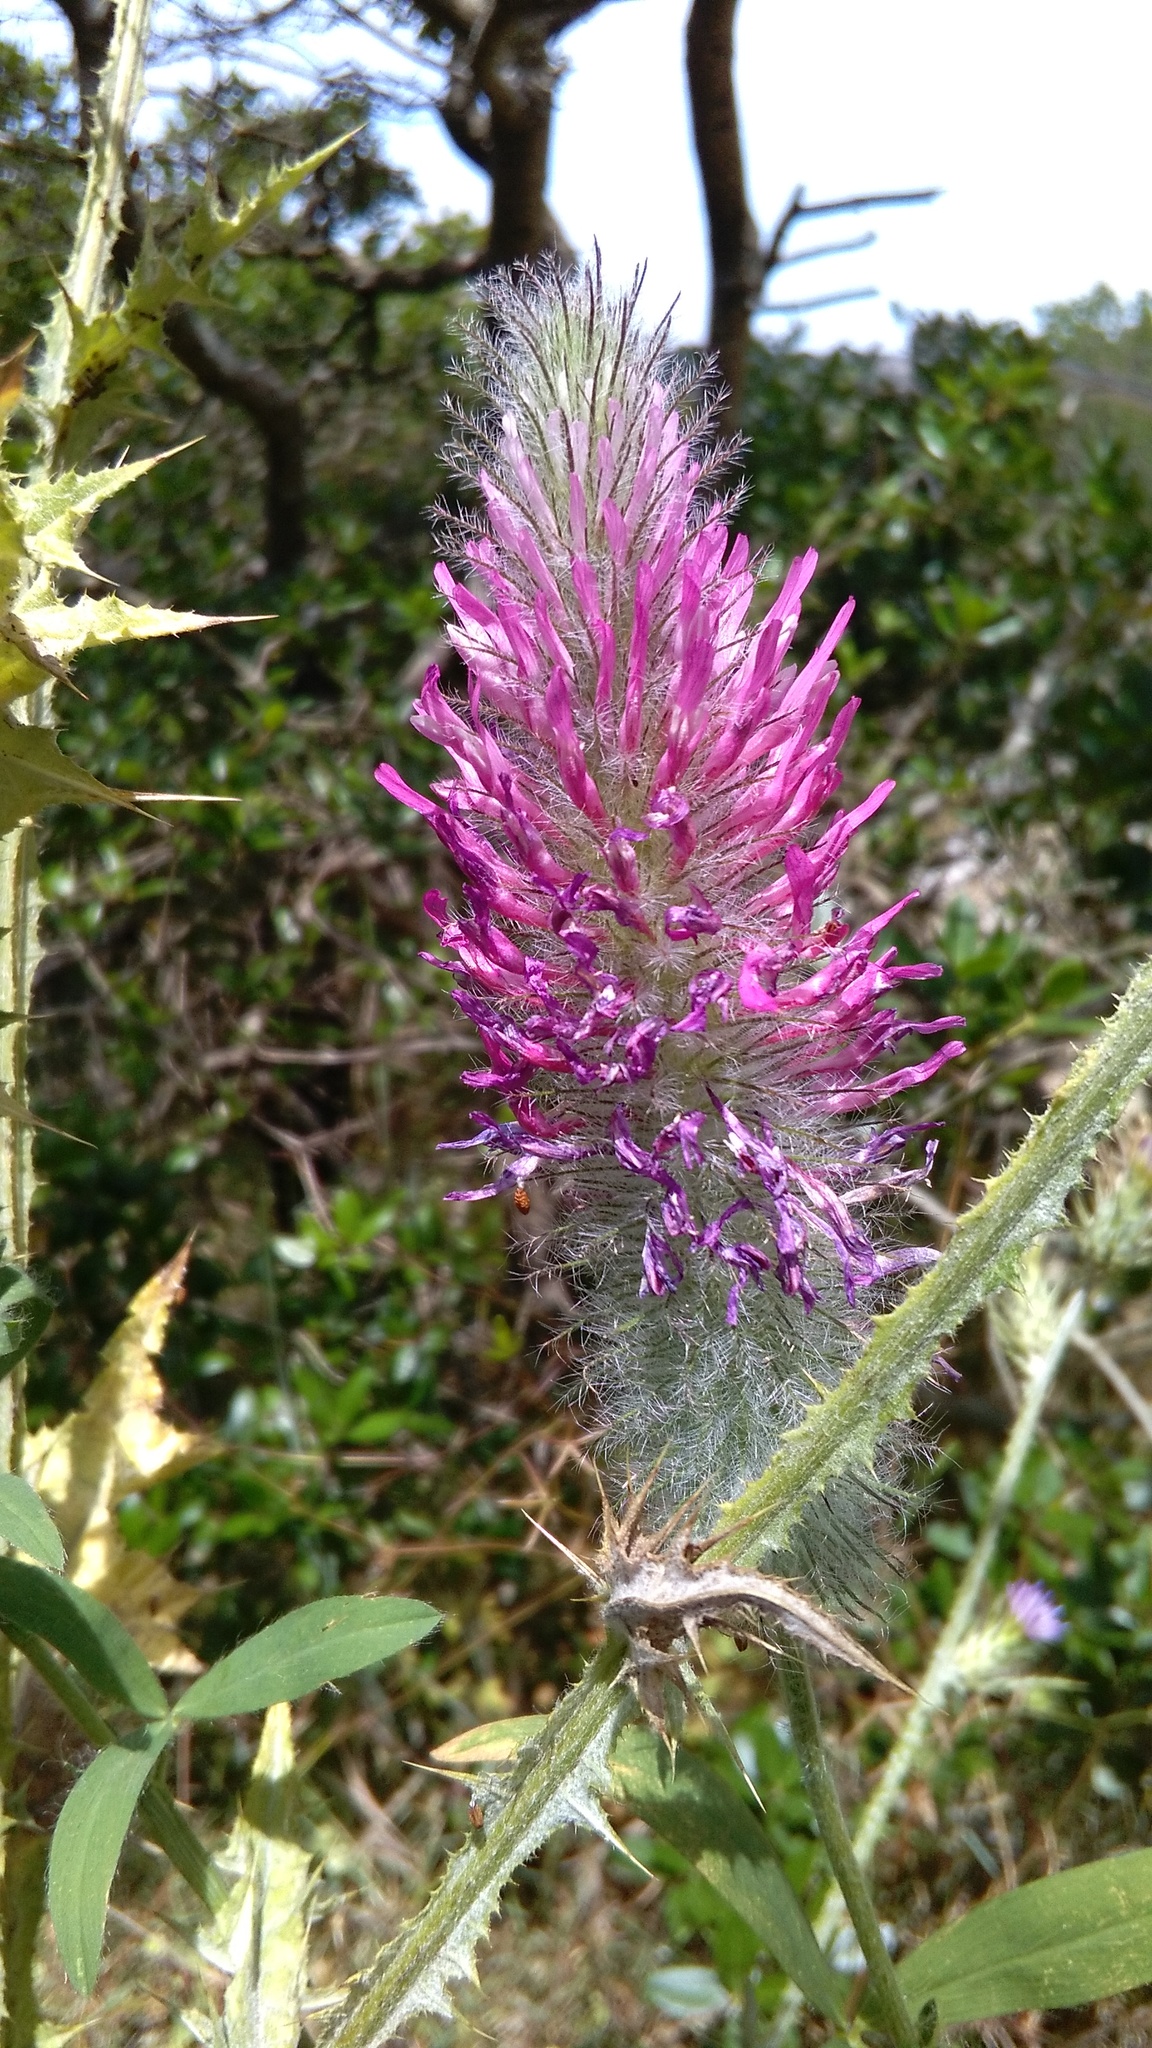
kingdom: Plantae
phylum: Tracheophyta
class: Magnoliopsida
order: Fabales
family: Fabaceae
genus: Trifolium
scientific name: Trifolium purpureum
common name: Purple clover
